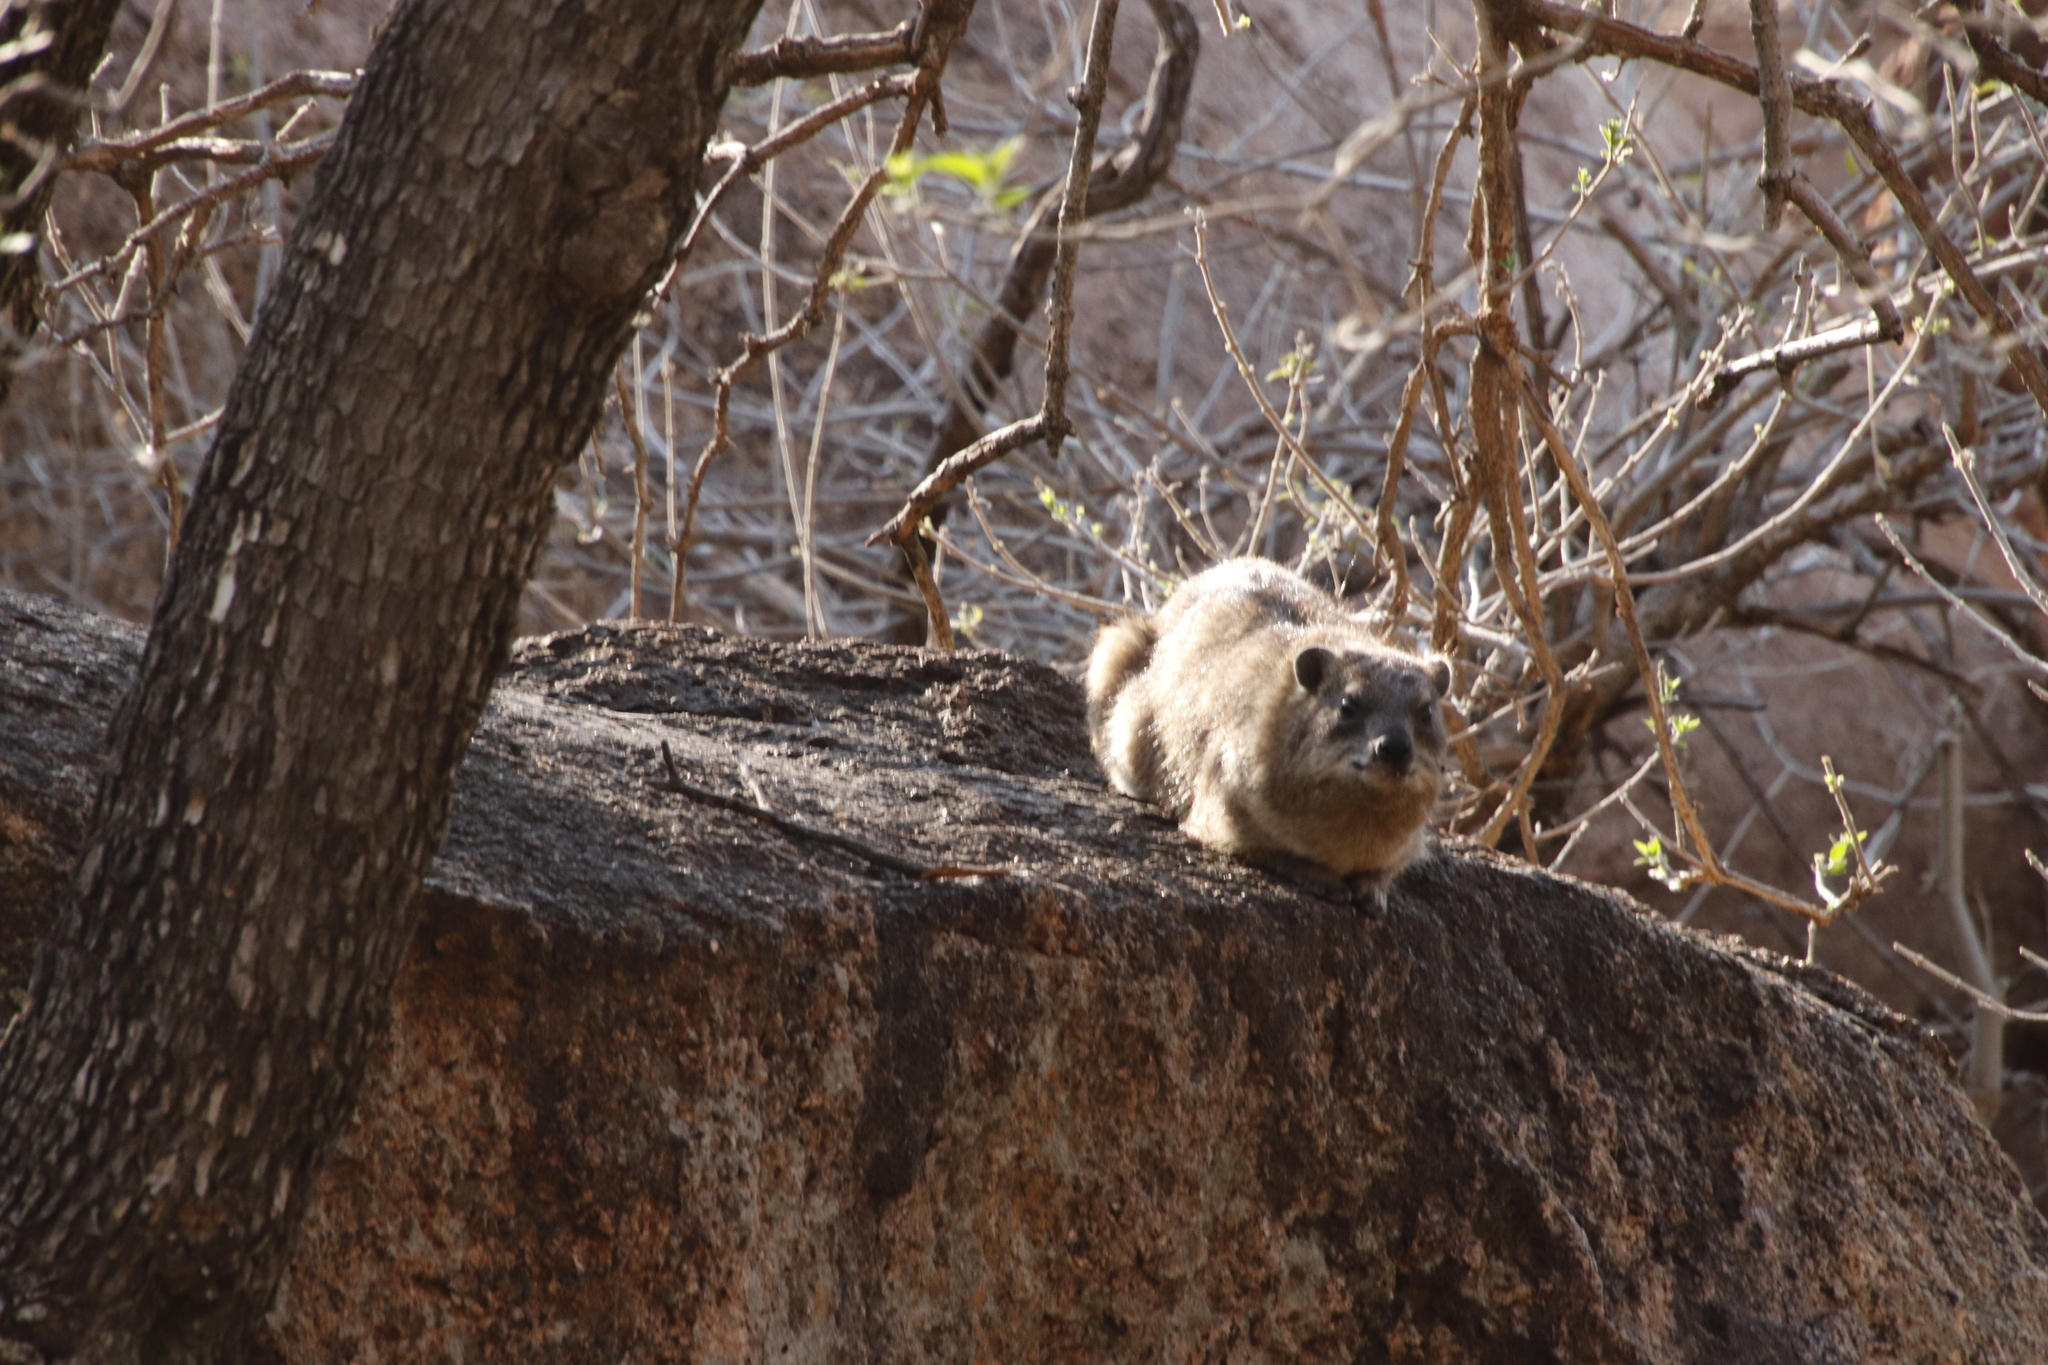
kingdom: Animalia
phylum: Chordata
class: Mammalia
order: Hyracoidea
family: Procaviidae
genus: Procavia
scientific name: Procavia capensis
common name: Rock hyrax
